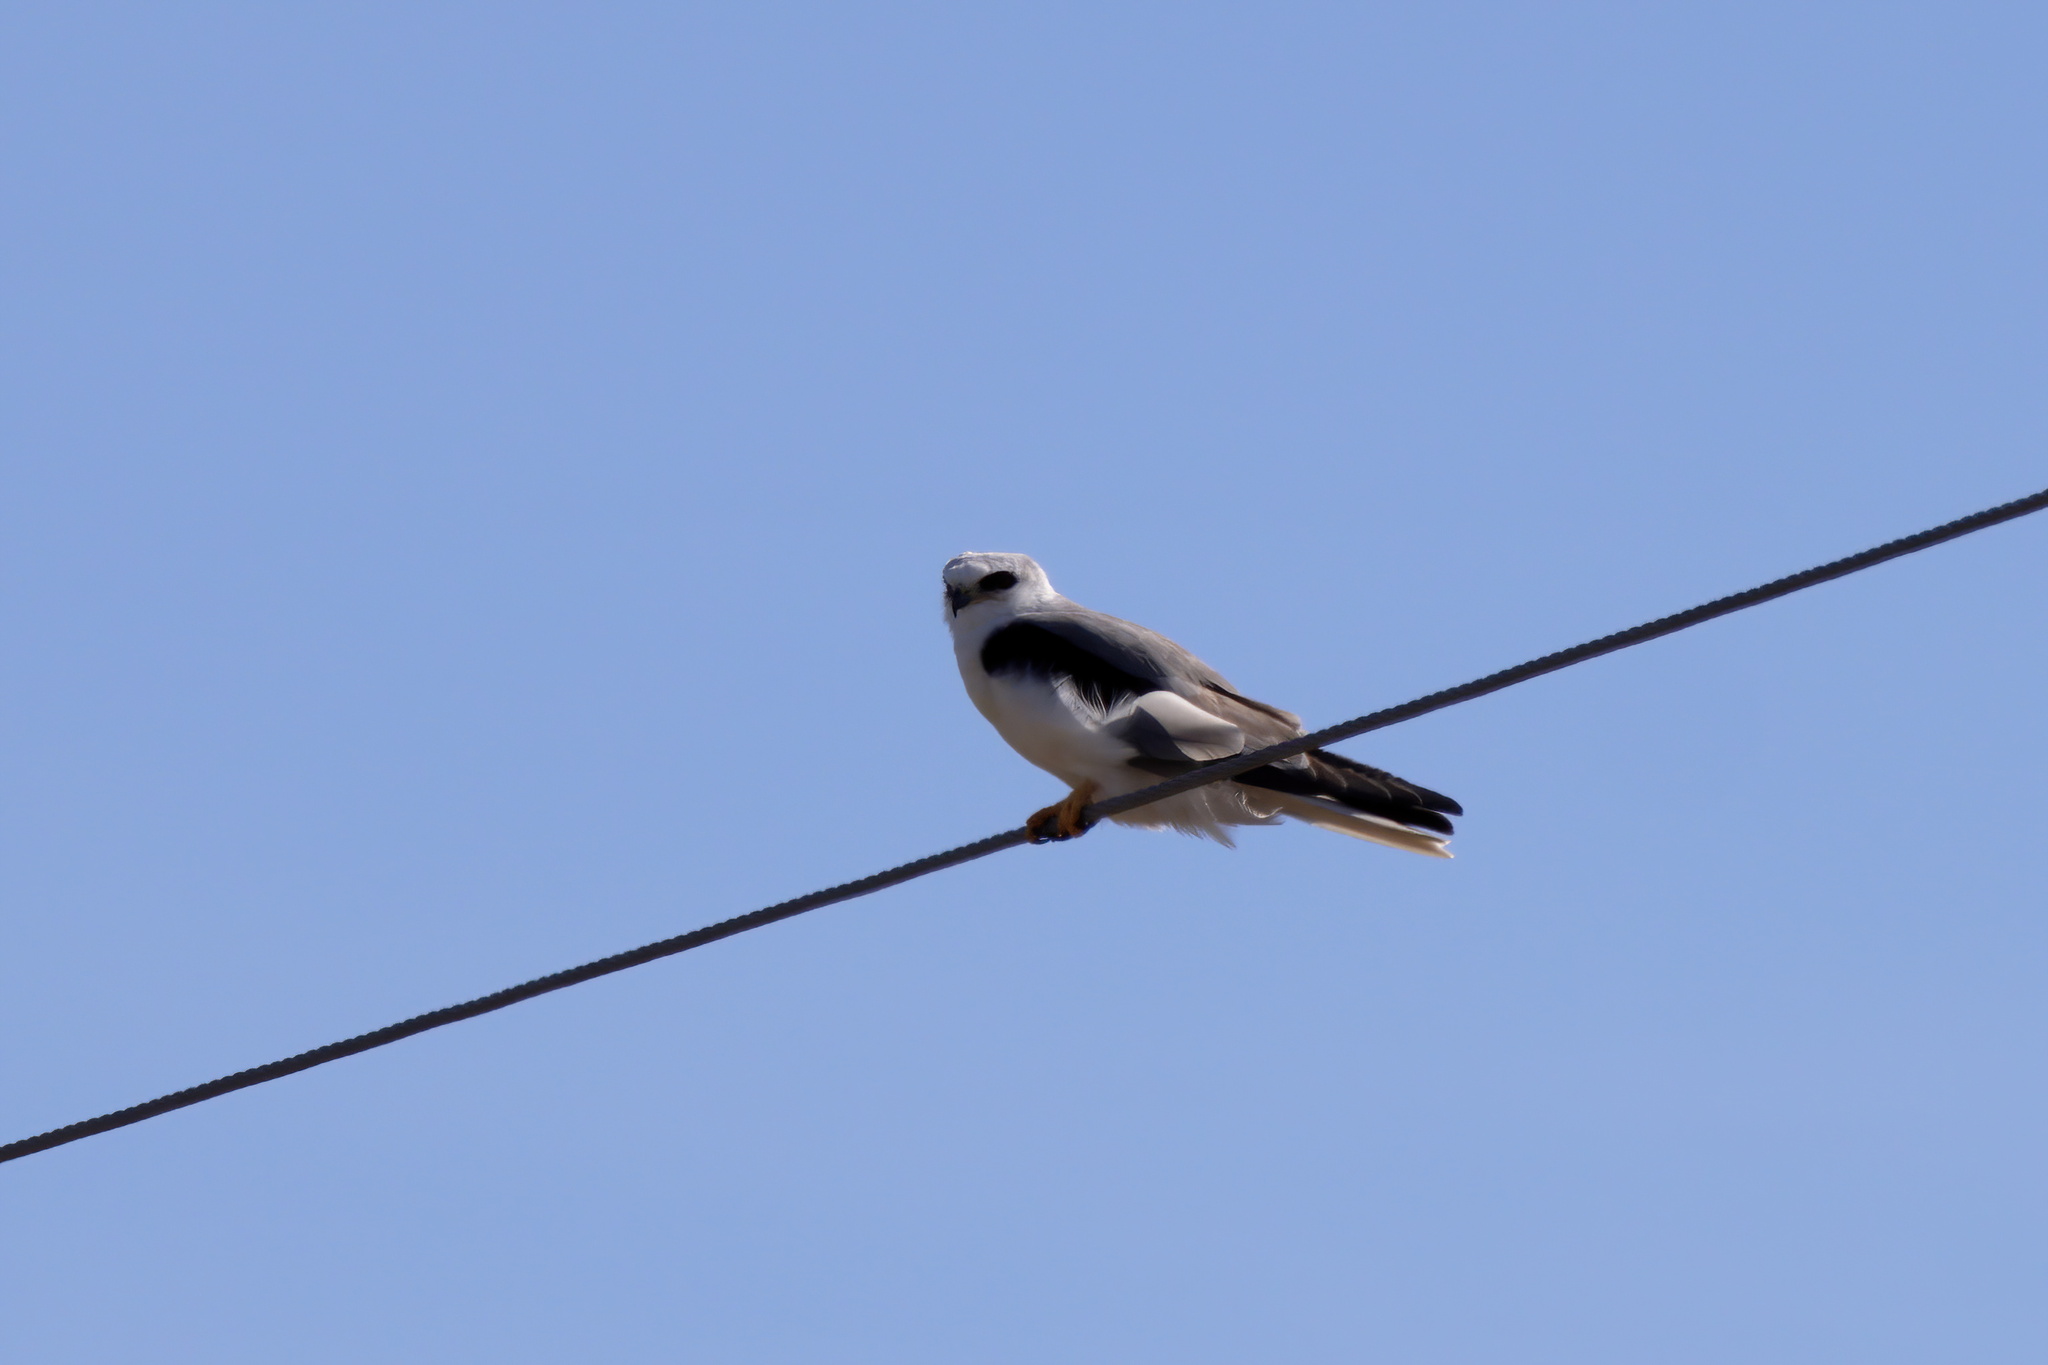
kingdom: Animalia
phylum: Chordata
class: Aves
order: Accipitriformes
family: Accipitridae
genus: Elanus
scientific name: Elanus leucurus
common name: White-tailed kite
